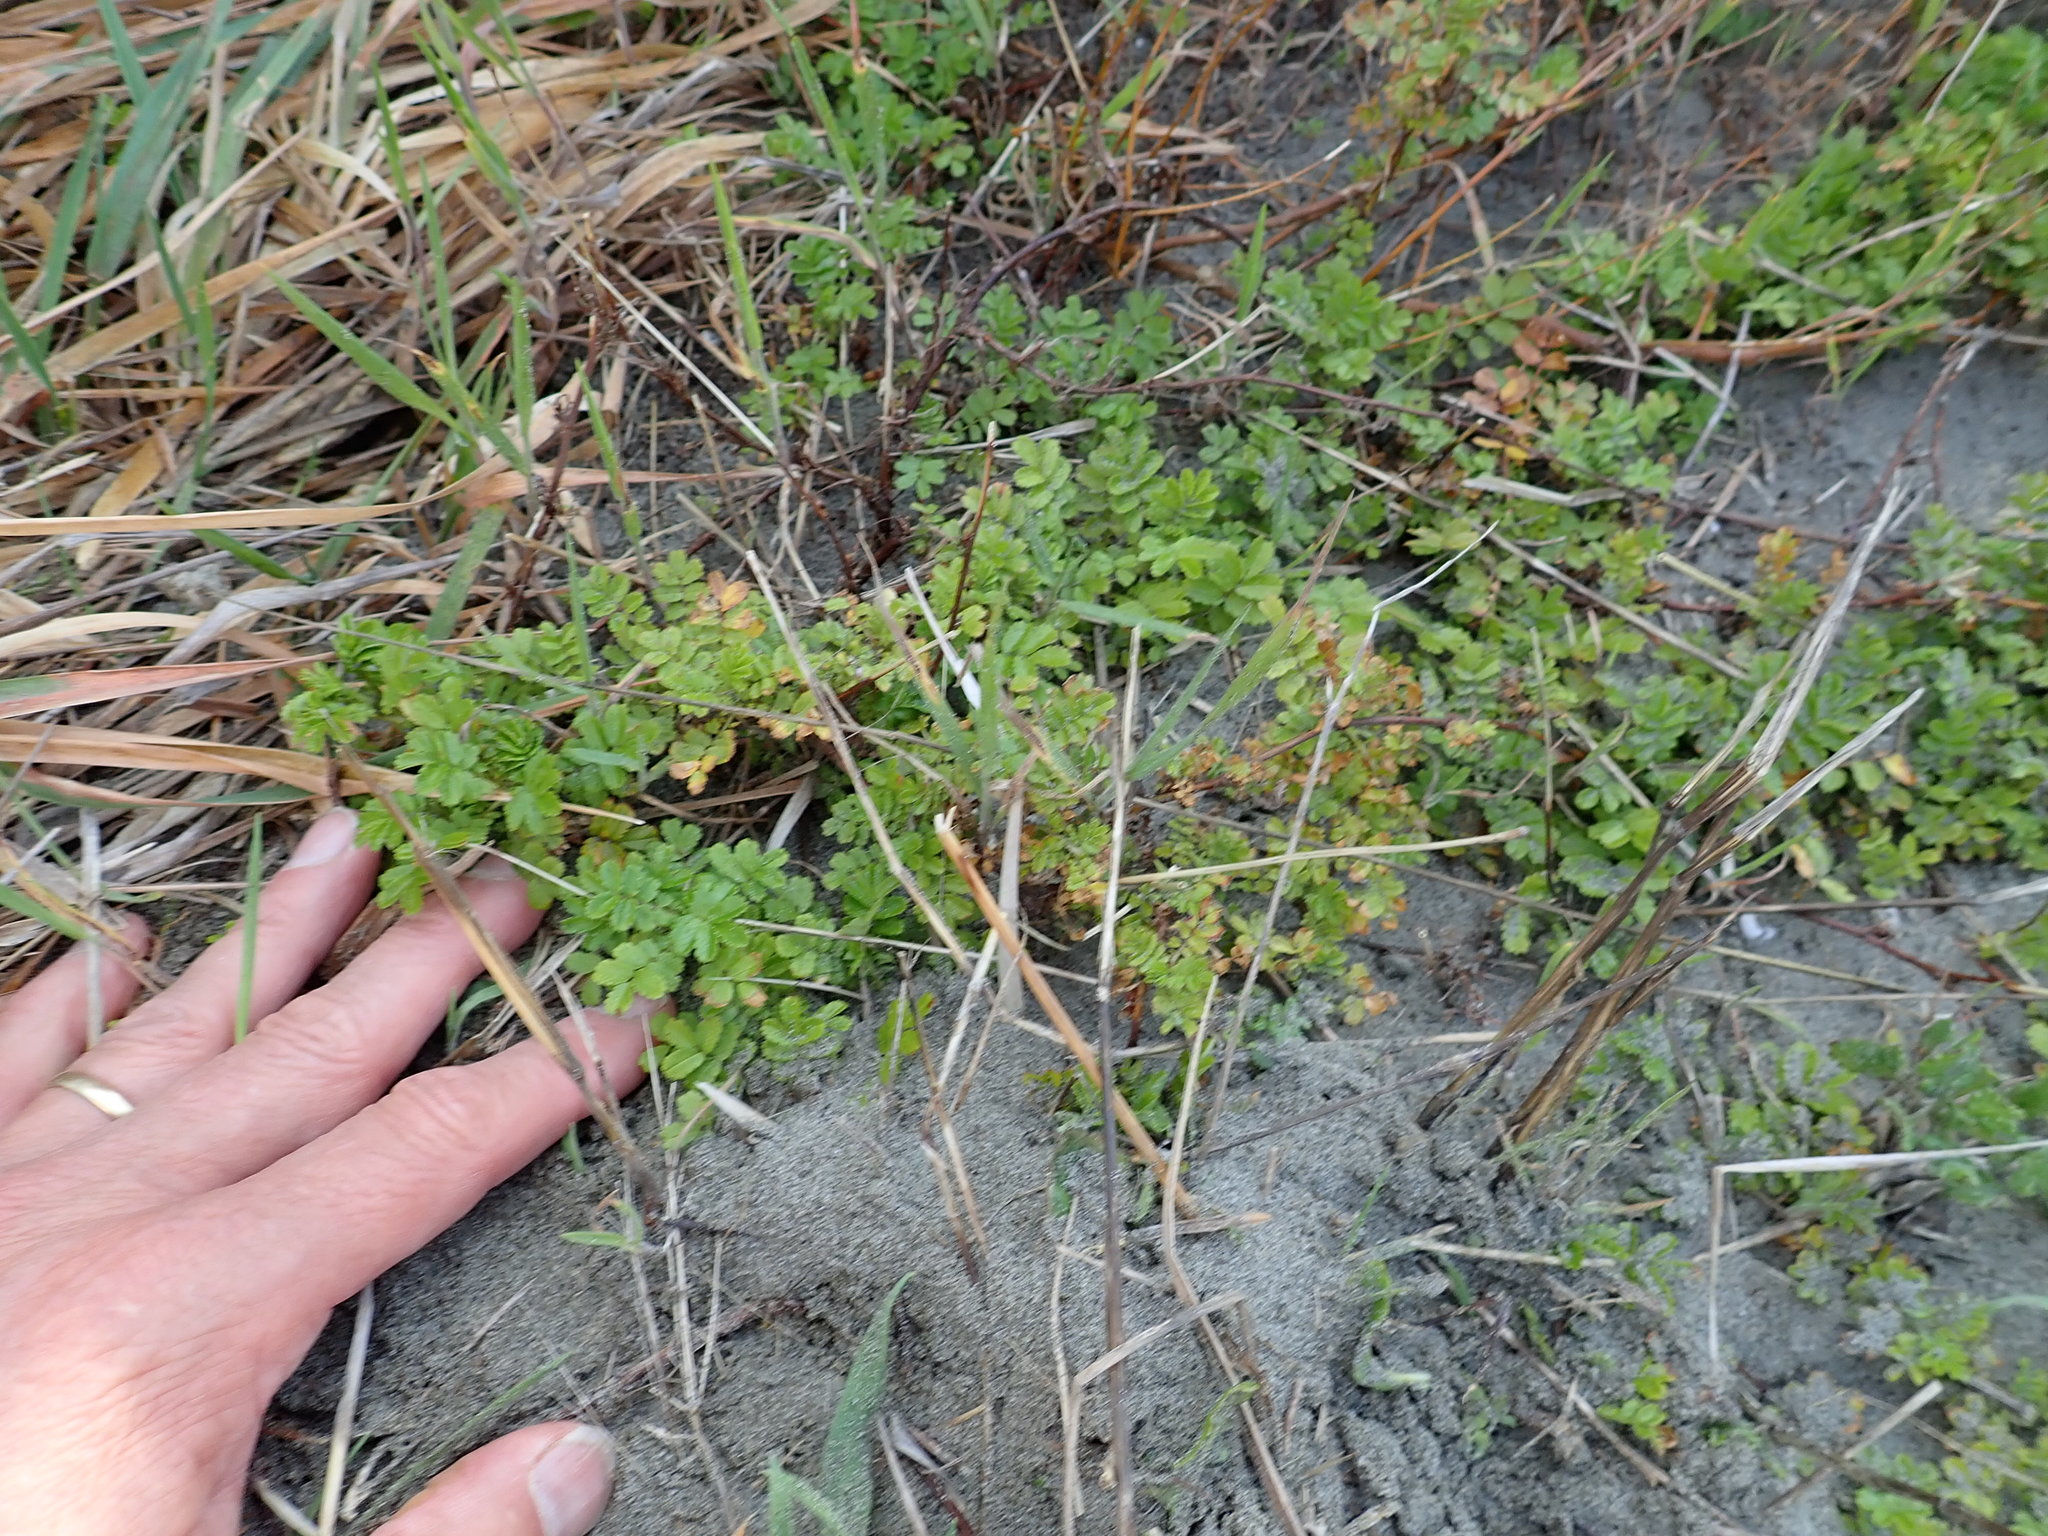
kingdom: Plantae
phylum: Tracheophyta
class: Magnoliopsida
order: Rosales
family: Rosaceae
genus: Acaena
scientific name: Acaena novae-zelandiae
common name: Pirri-pirri-bur
